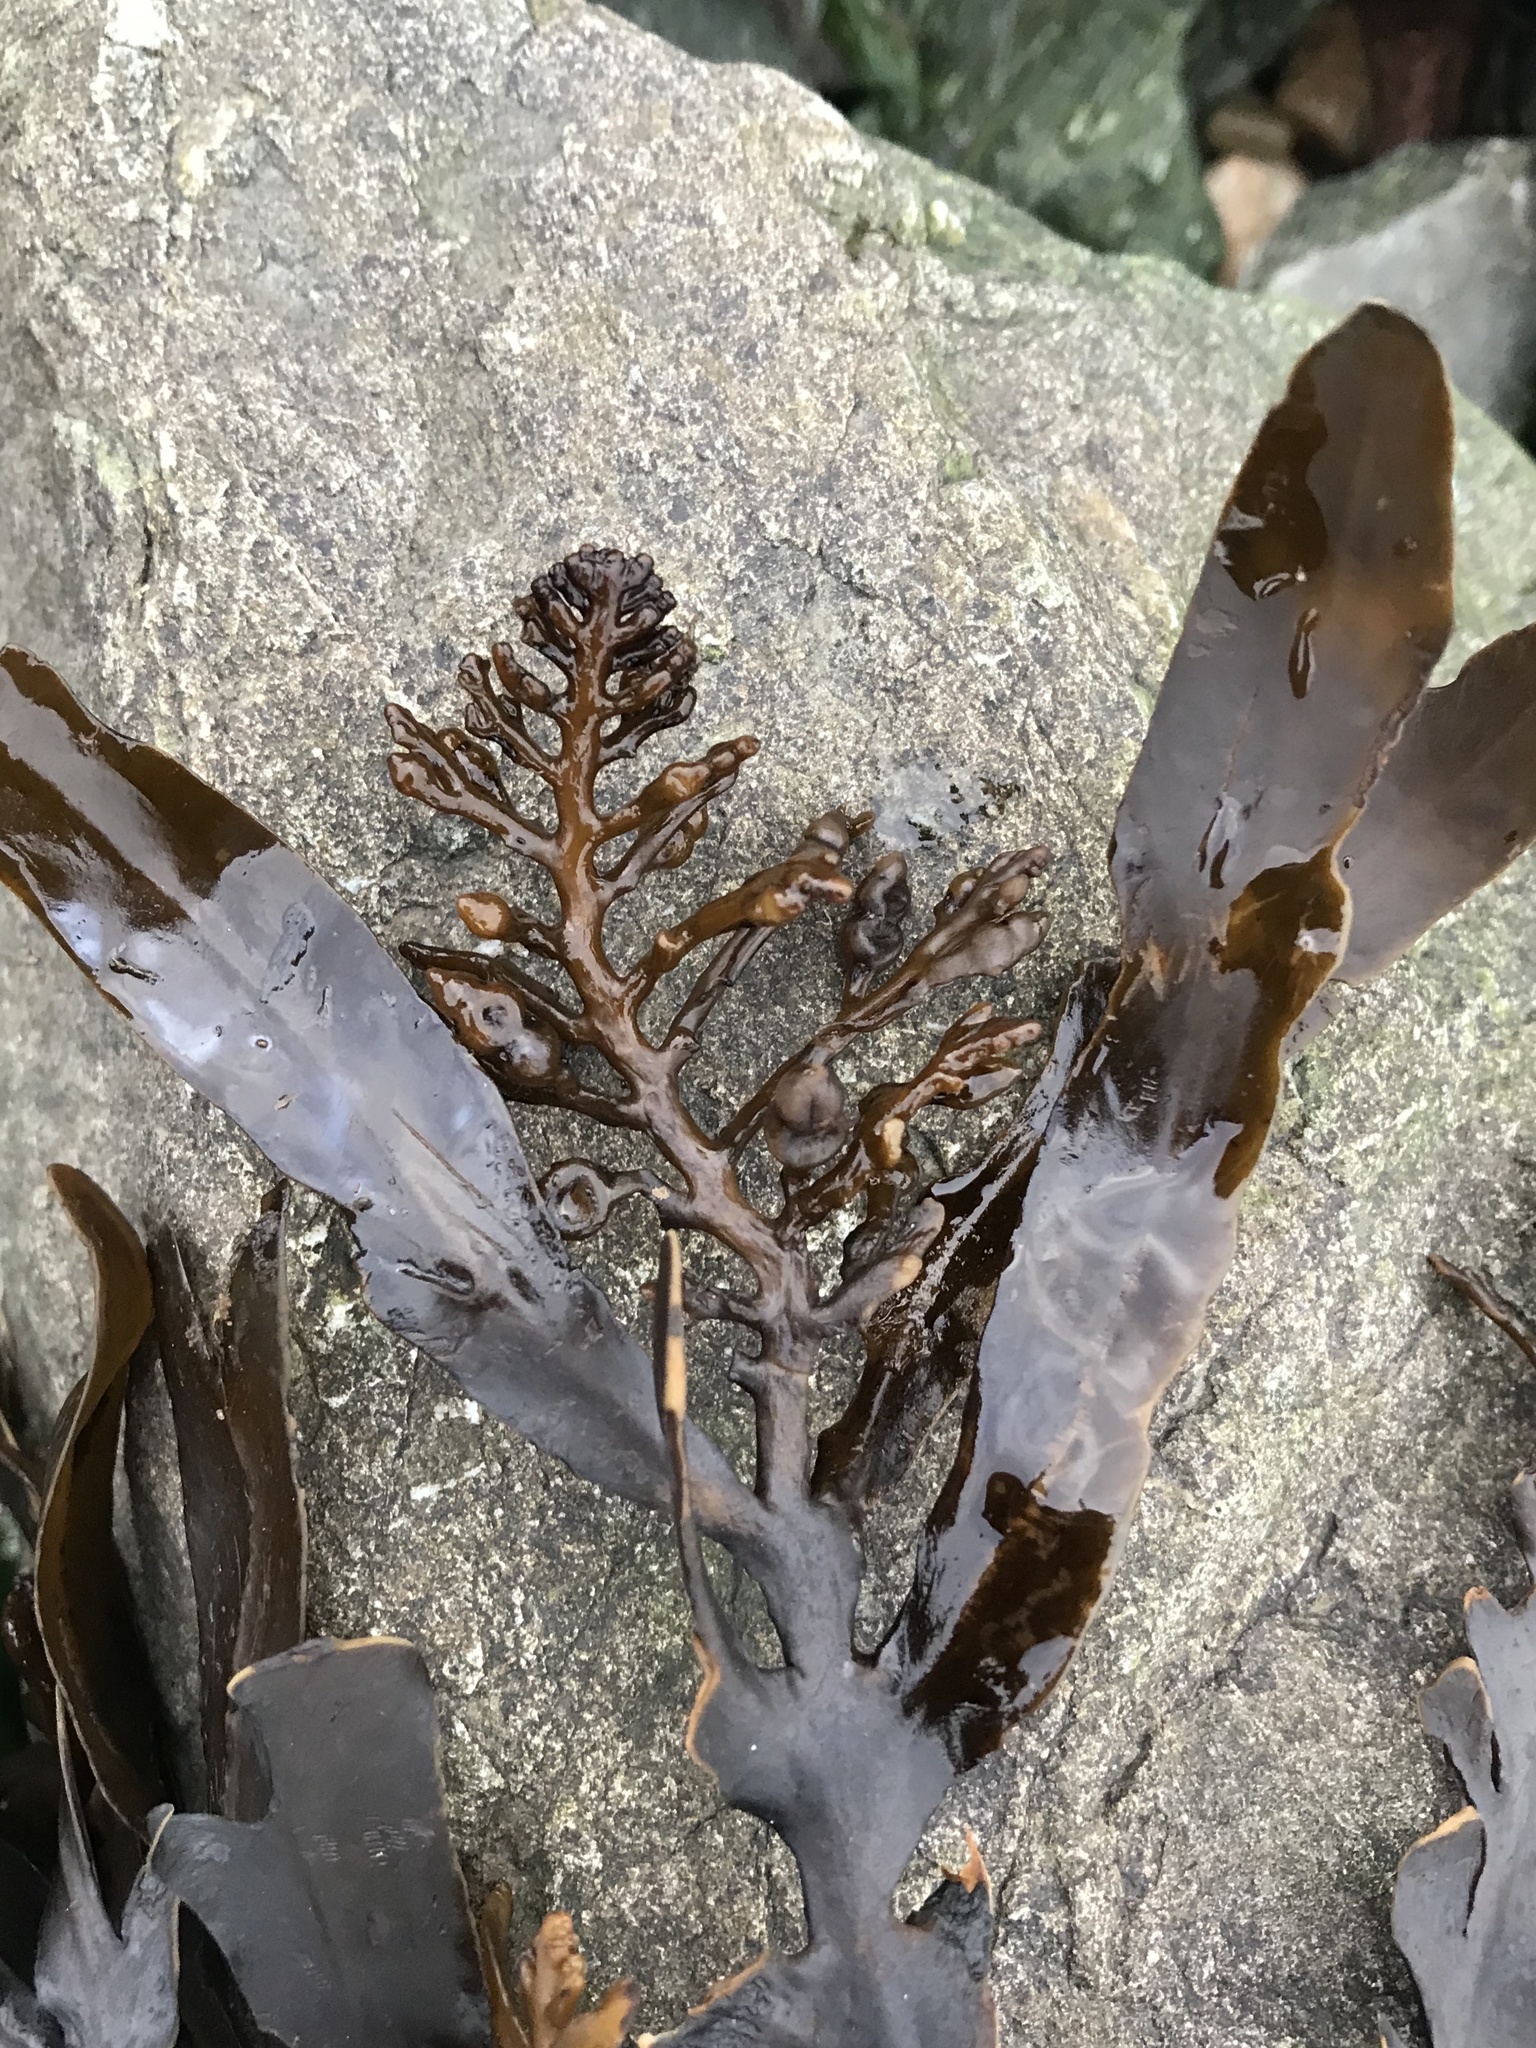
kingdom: Chromista
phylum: Ochrophyta
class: Phaeophyceae
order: Fucales
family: Sargassaceae
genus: Stephanocystis
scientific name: Stephanocystis
